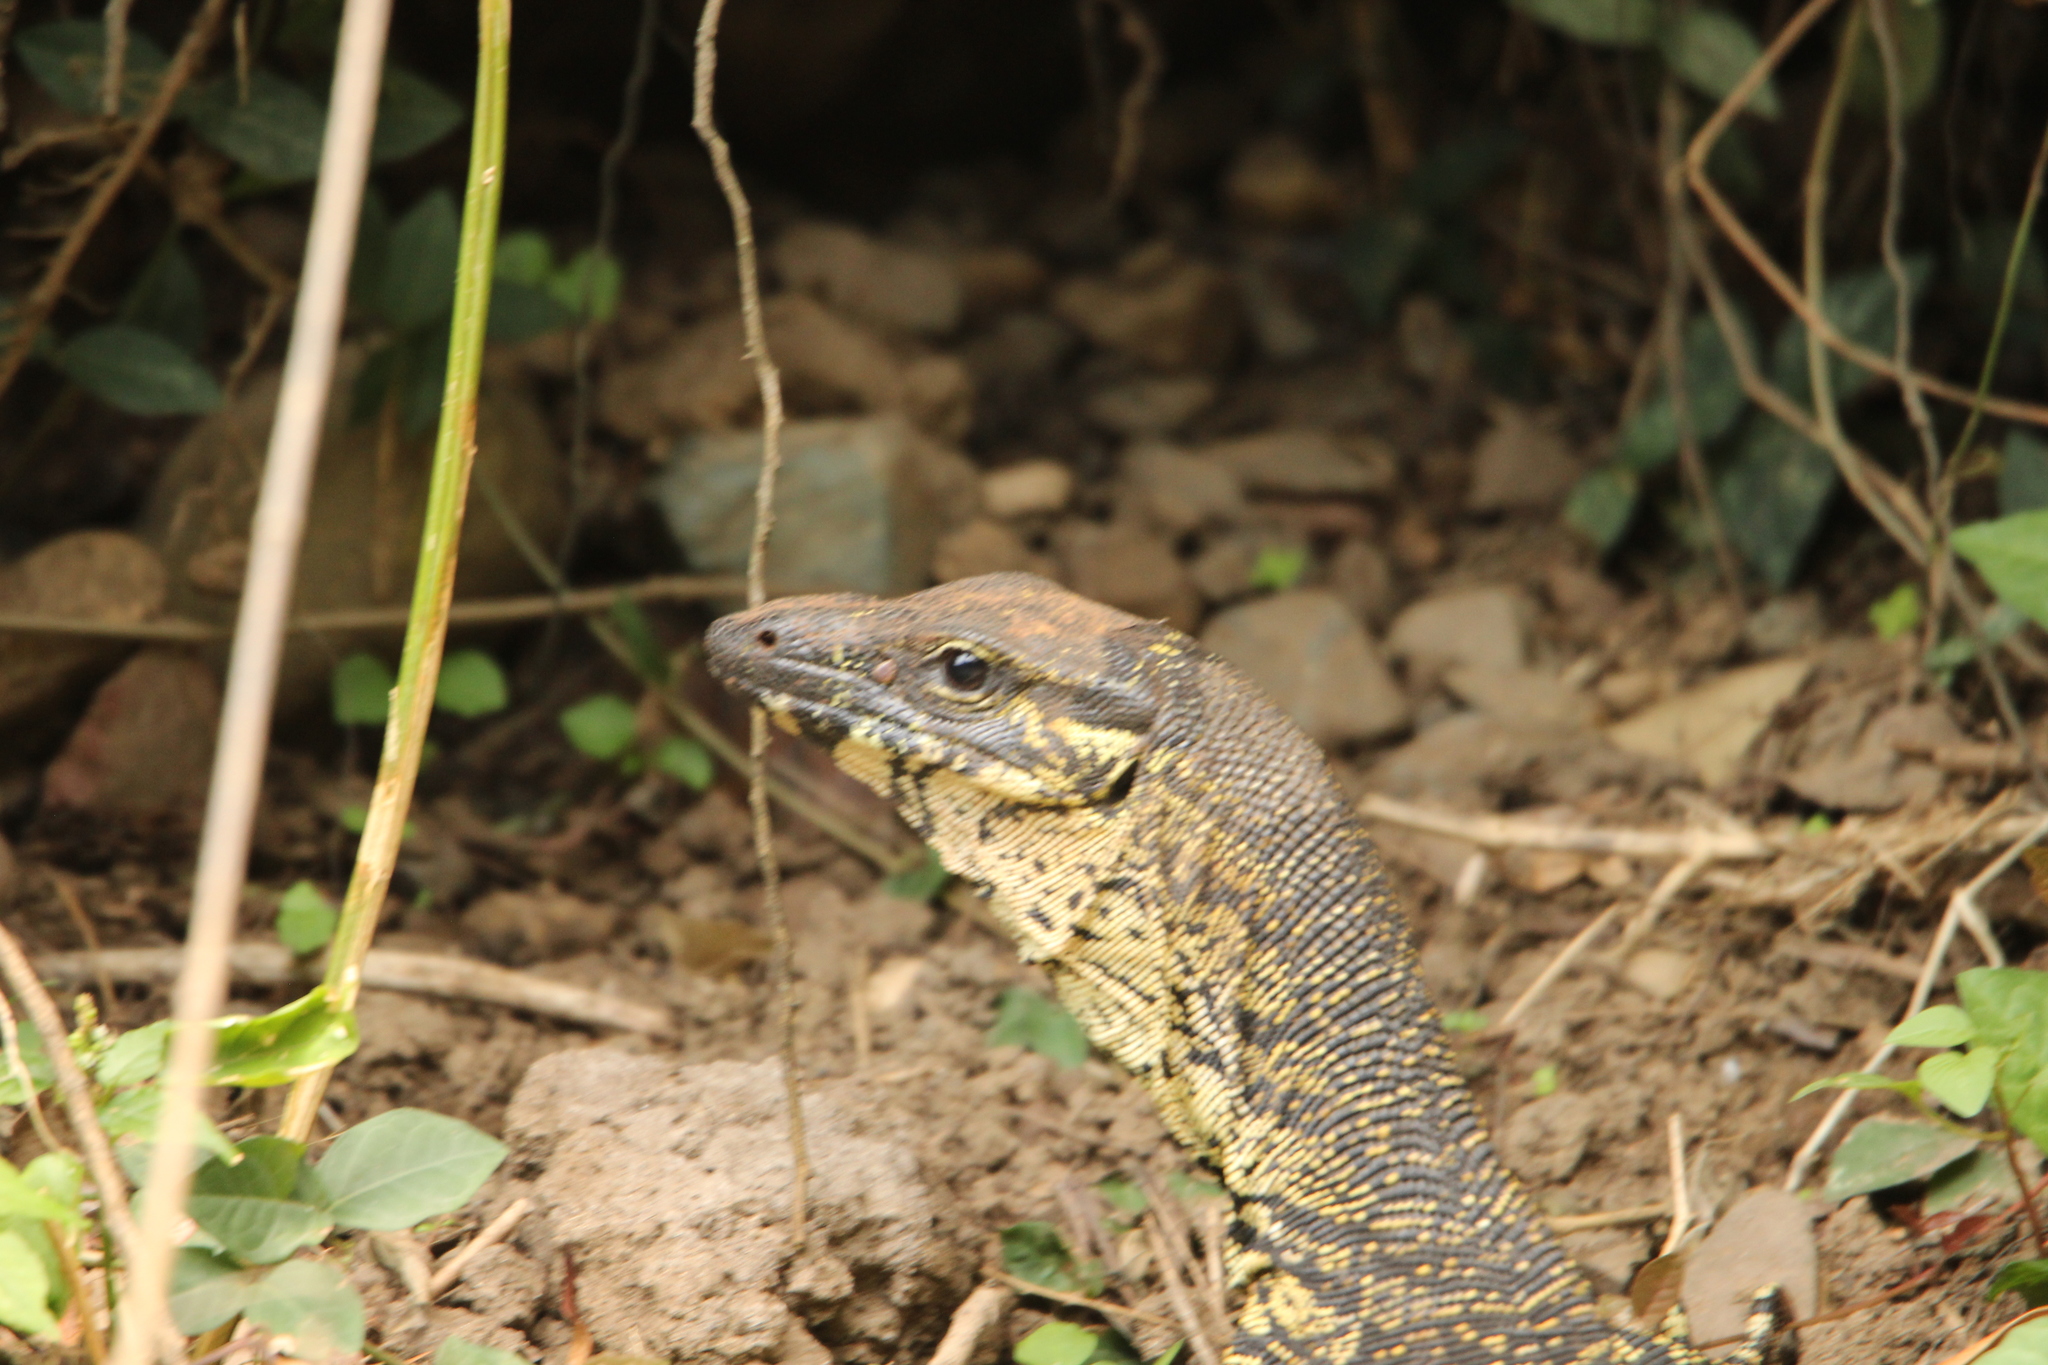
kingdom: Animalia
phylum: Chordata
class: Squamata
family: Varanidae
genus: Varanus
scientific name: Varanus varius
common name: Lace monitor
